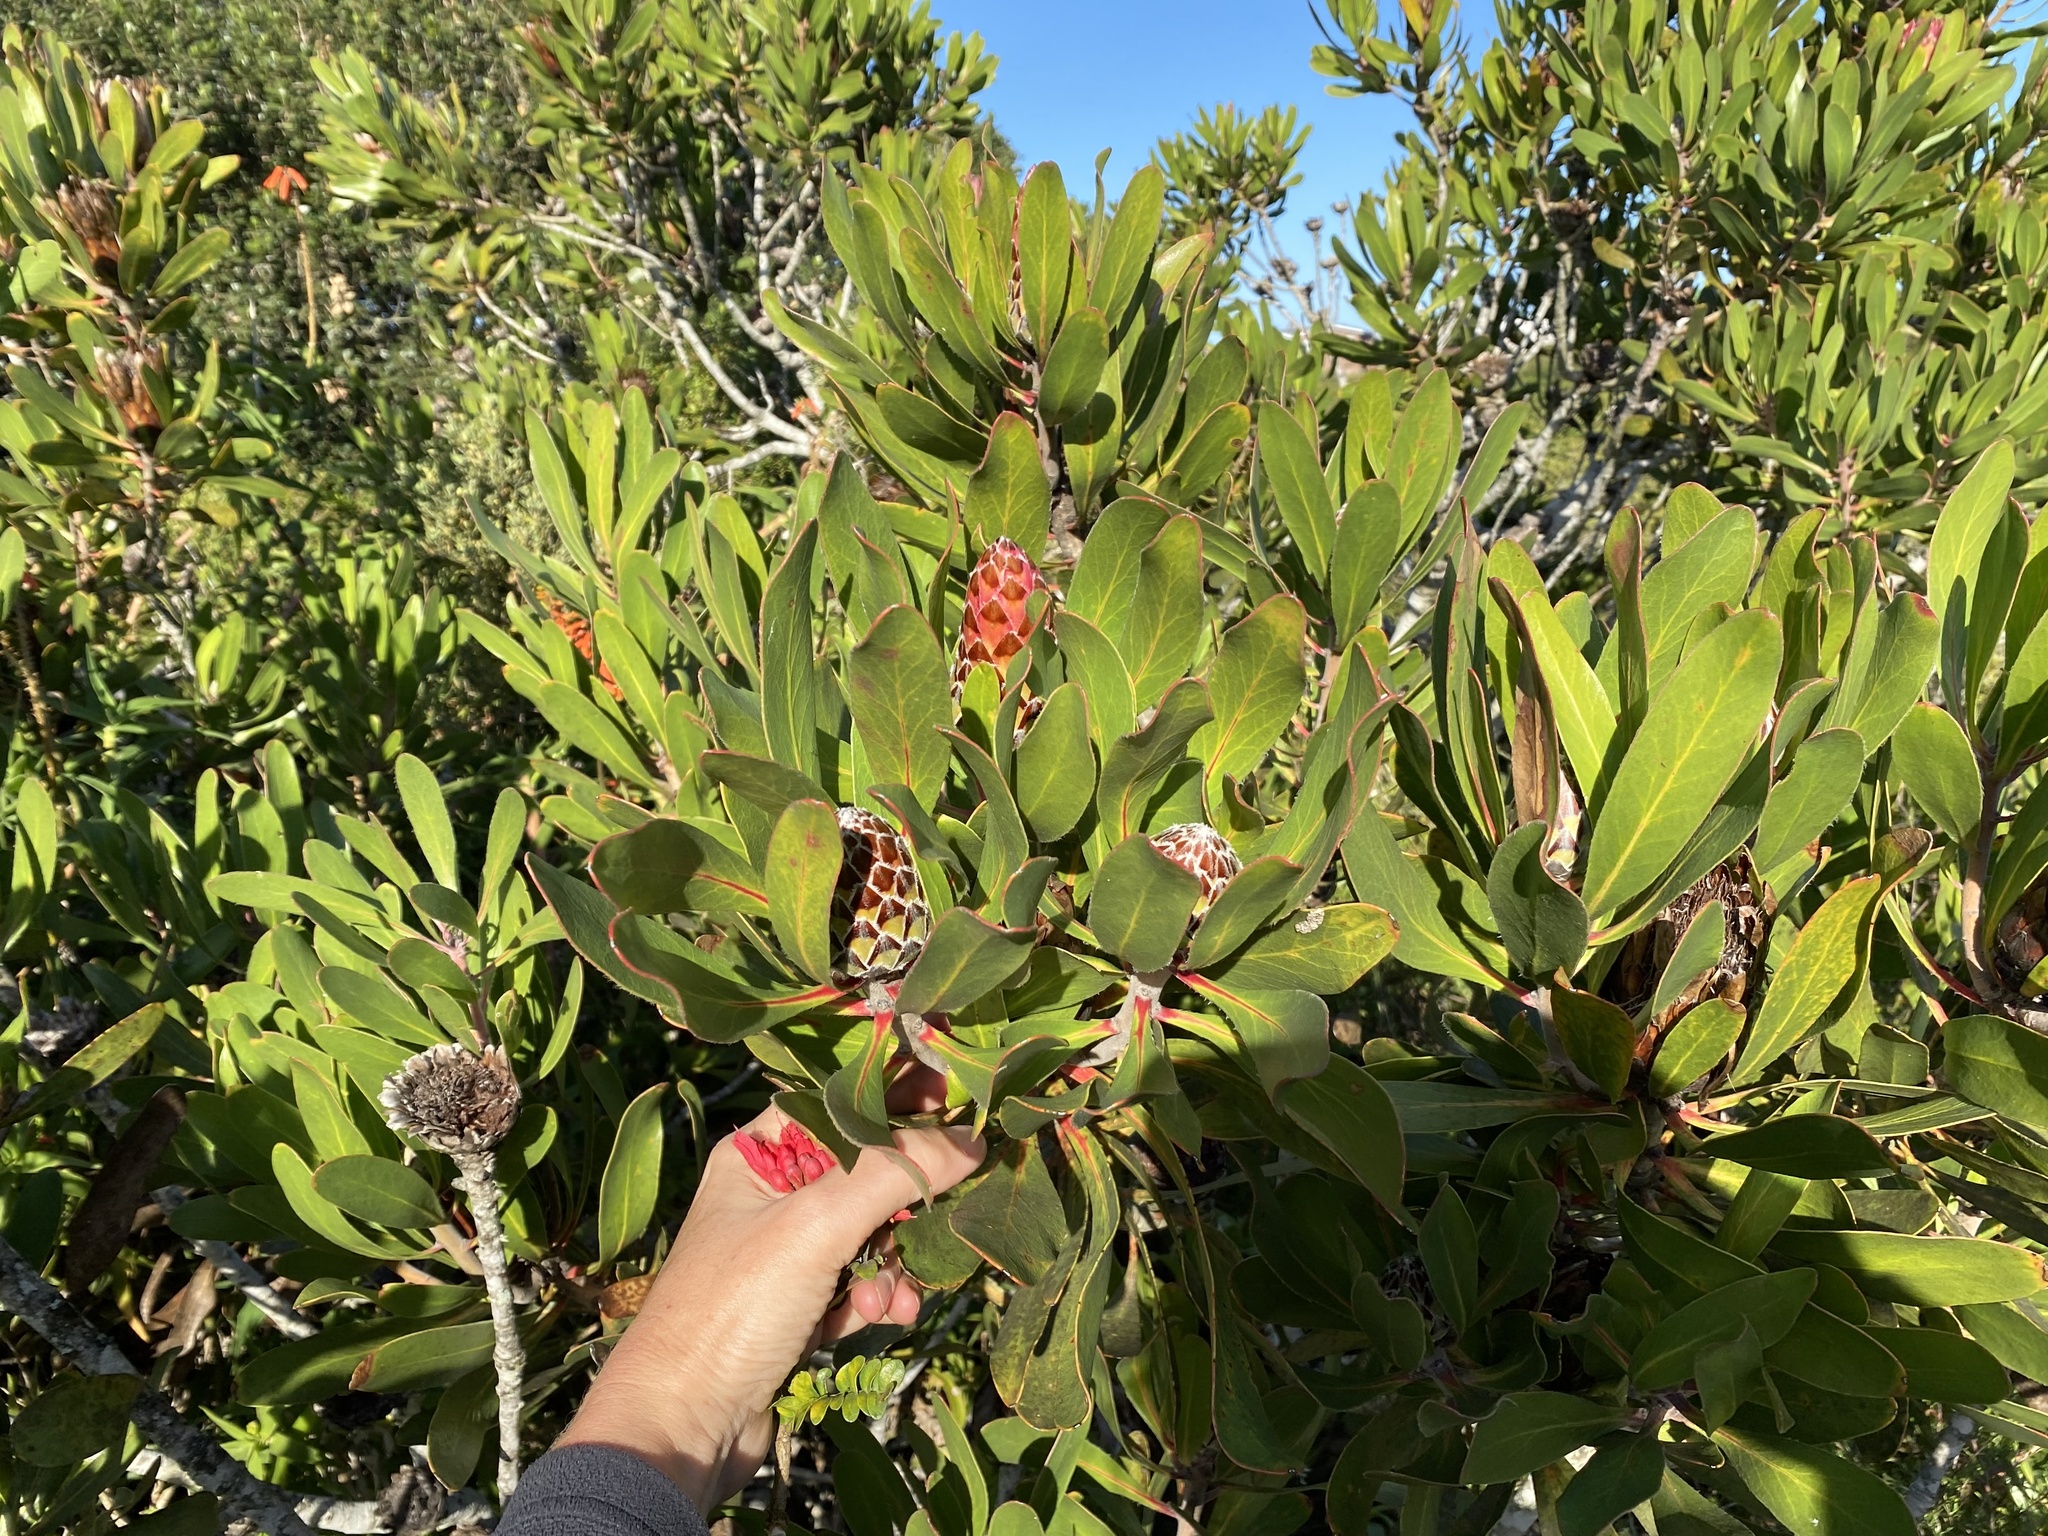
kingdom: Plantae
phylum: Tracheophyta
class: Magnoliopsida
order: Proteales
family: Proteaceae
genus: Protea
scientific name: Protea obtusifolia
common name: Bredasdorp sugarbush
